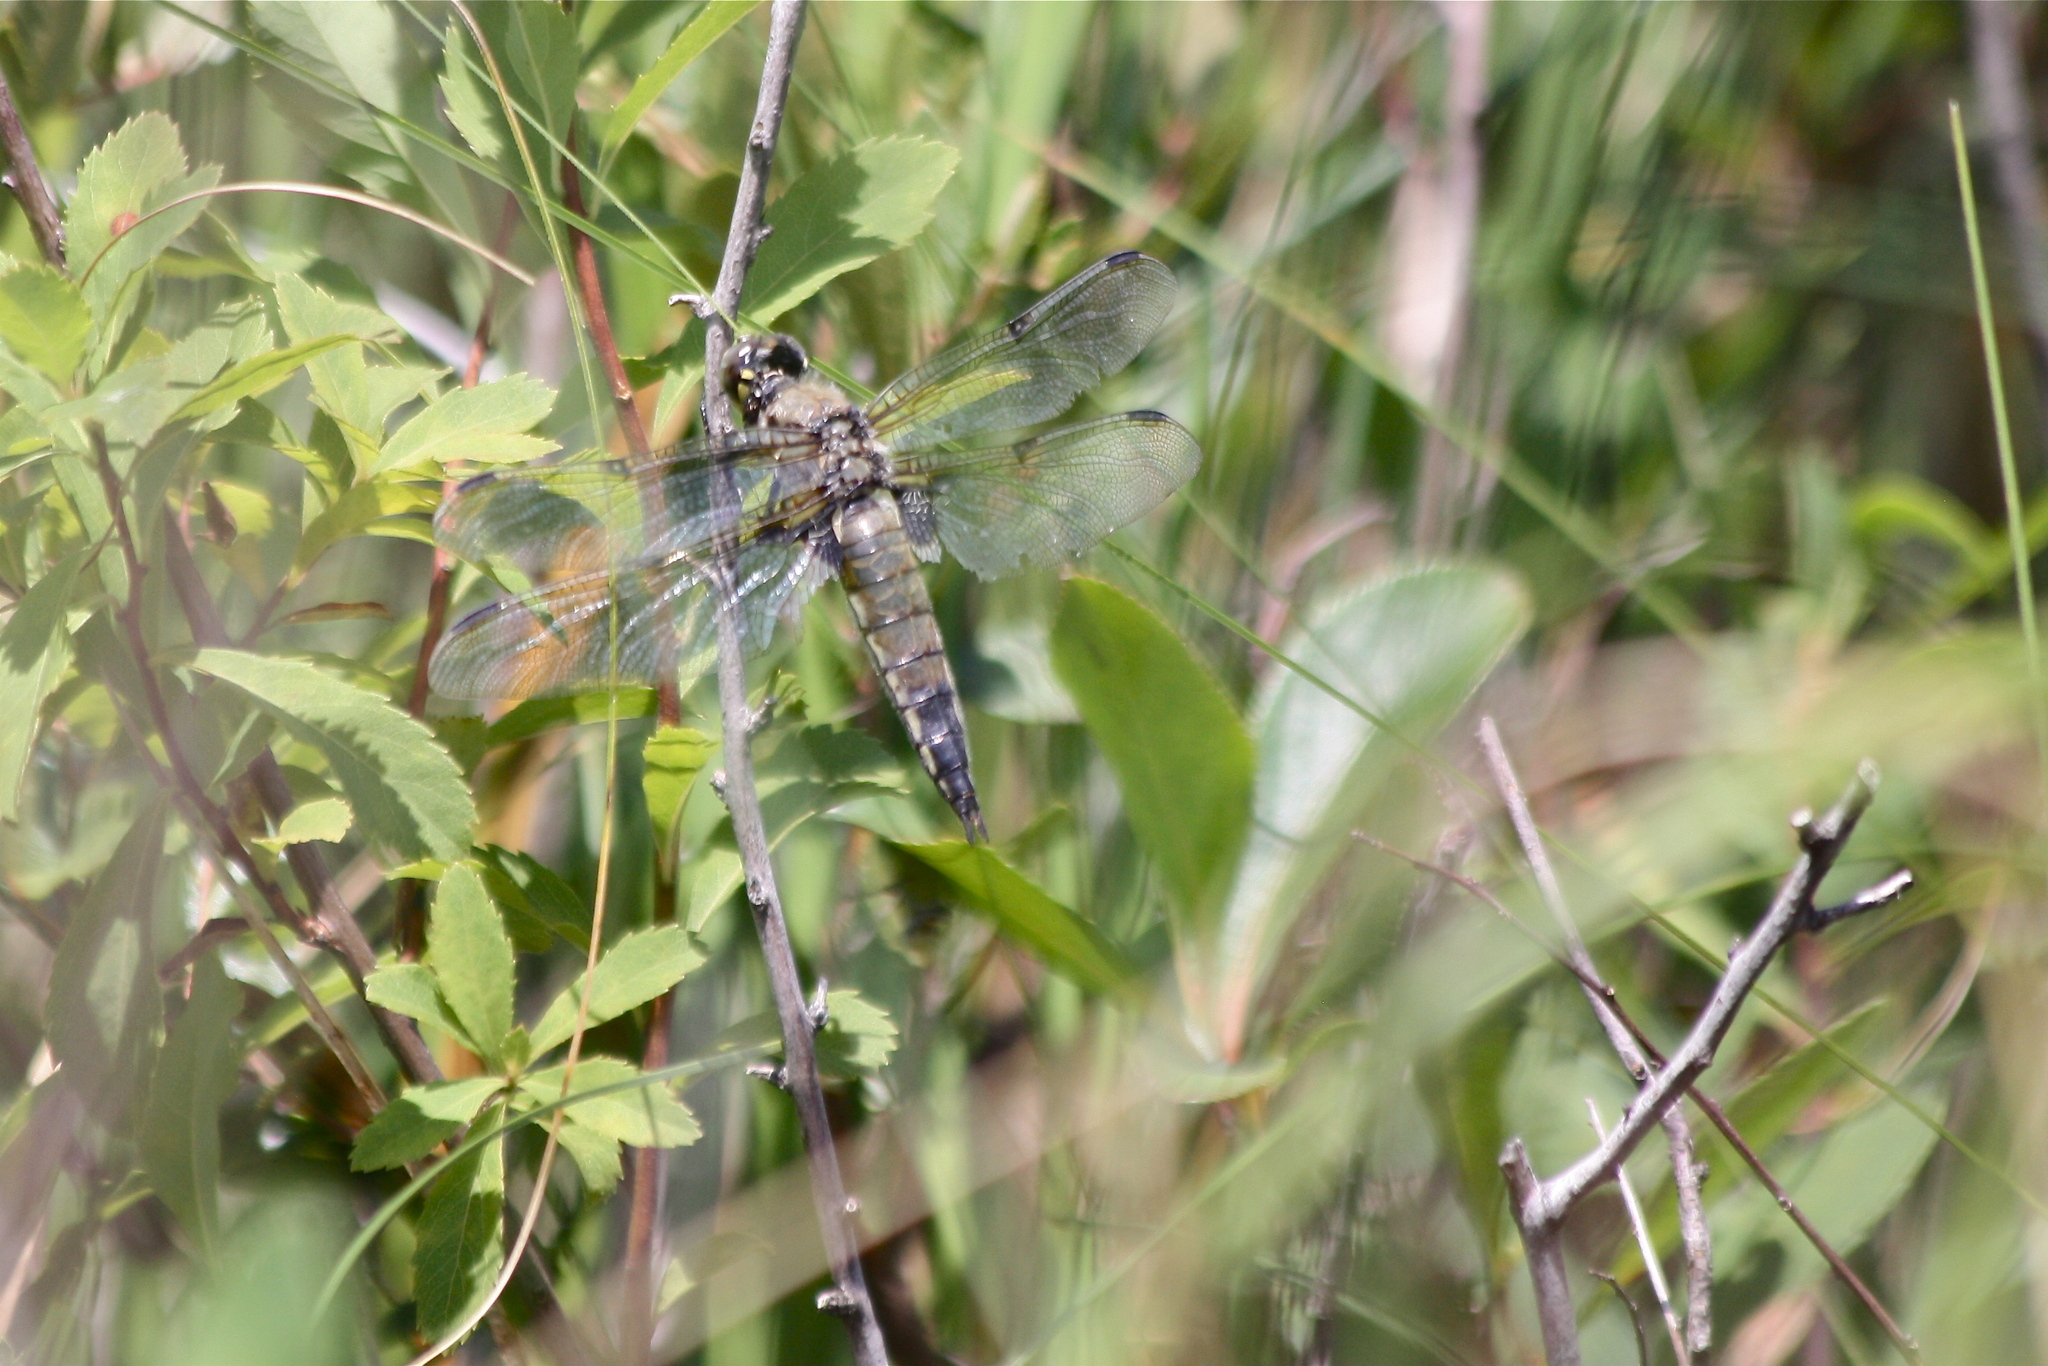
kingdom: Animalia
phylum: Arthropoda
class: Insecta
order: Odonata
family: Libellulidae
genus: Libellula
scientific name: Libellula quadrimaculata
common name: Four-spotted chaser
